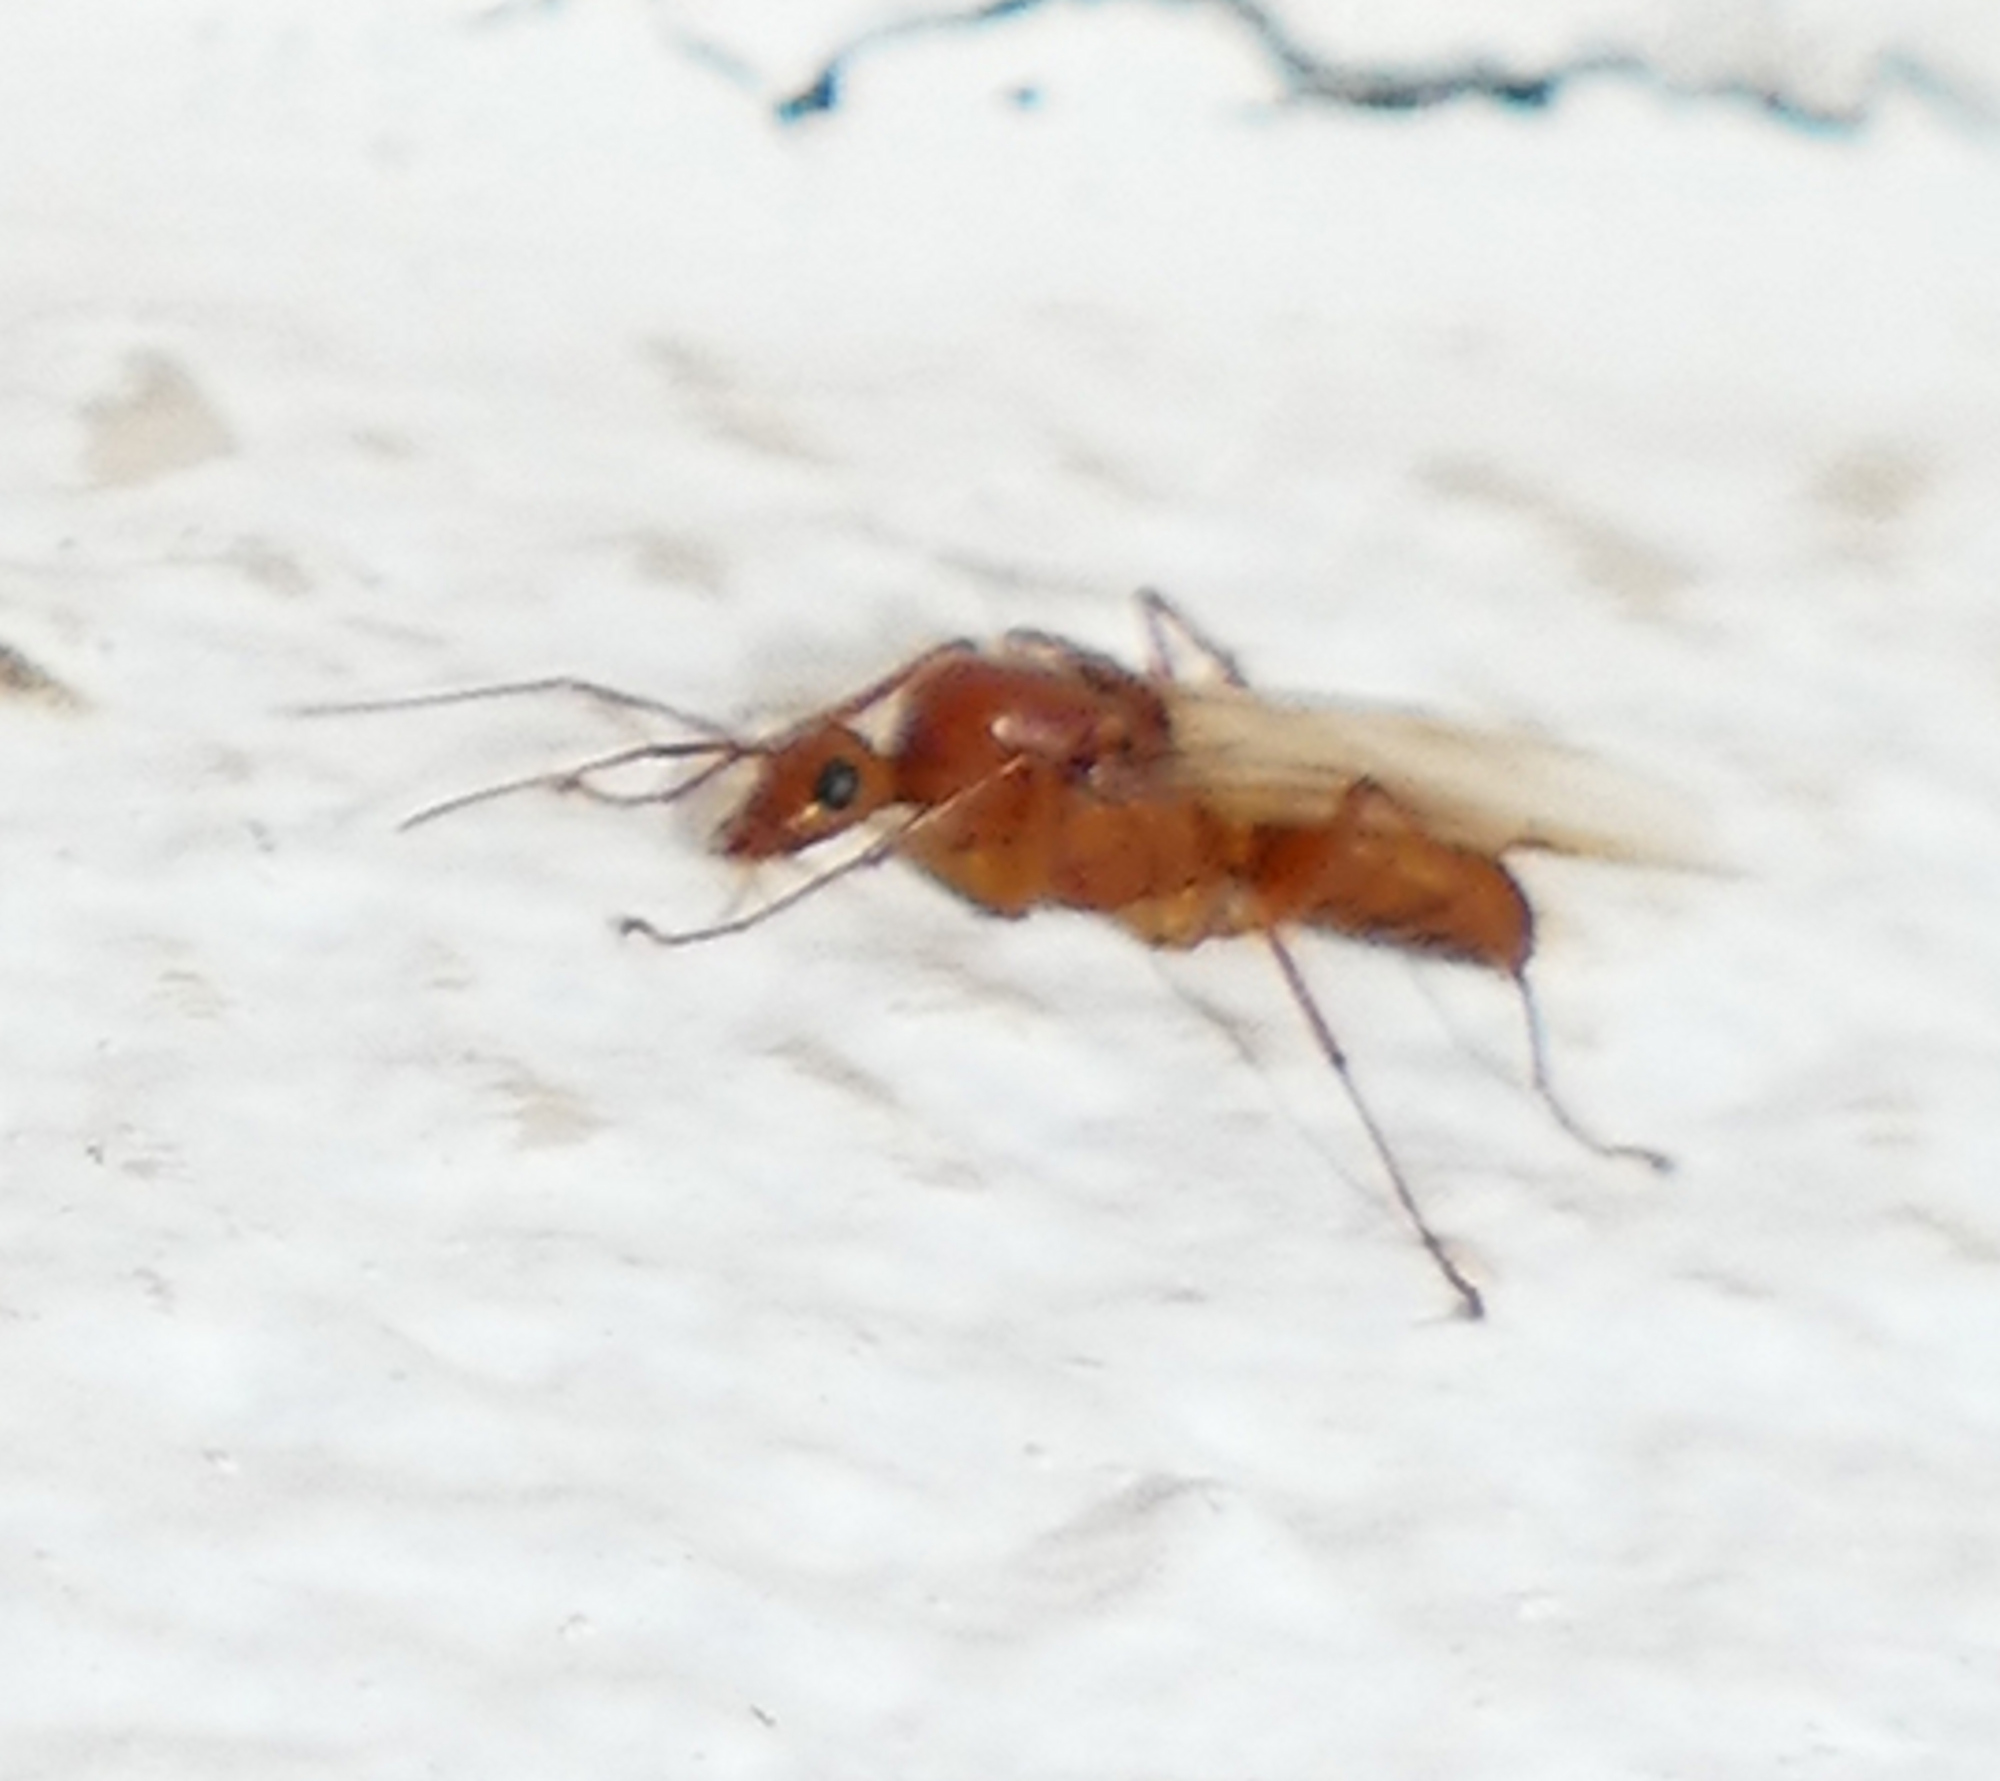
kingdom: Animalia
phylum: Arthropoda
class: Insecta
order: Hymenoptera
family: Formicidae
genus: Camponotus
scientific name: Camponotus castaneus
